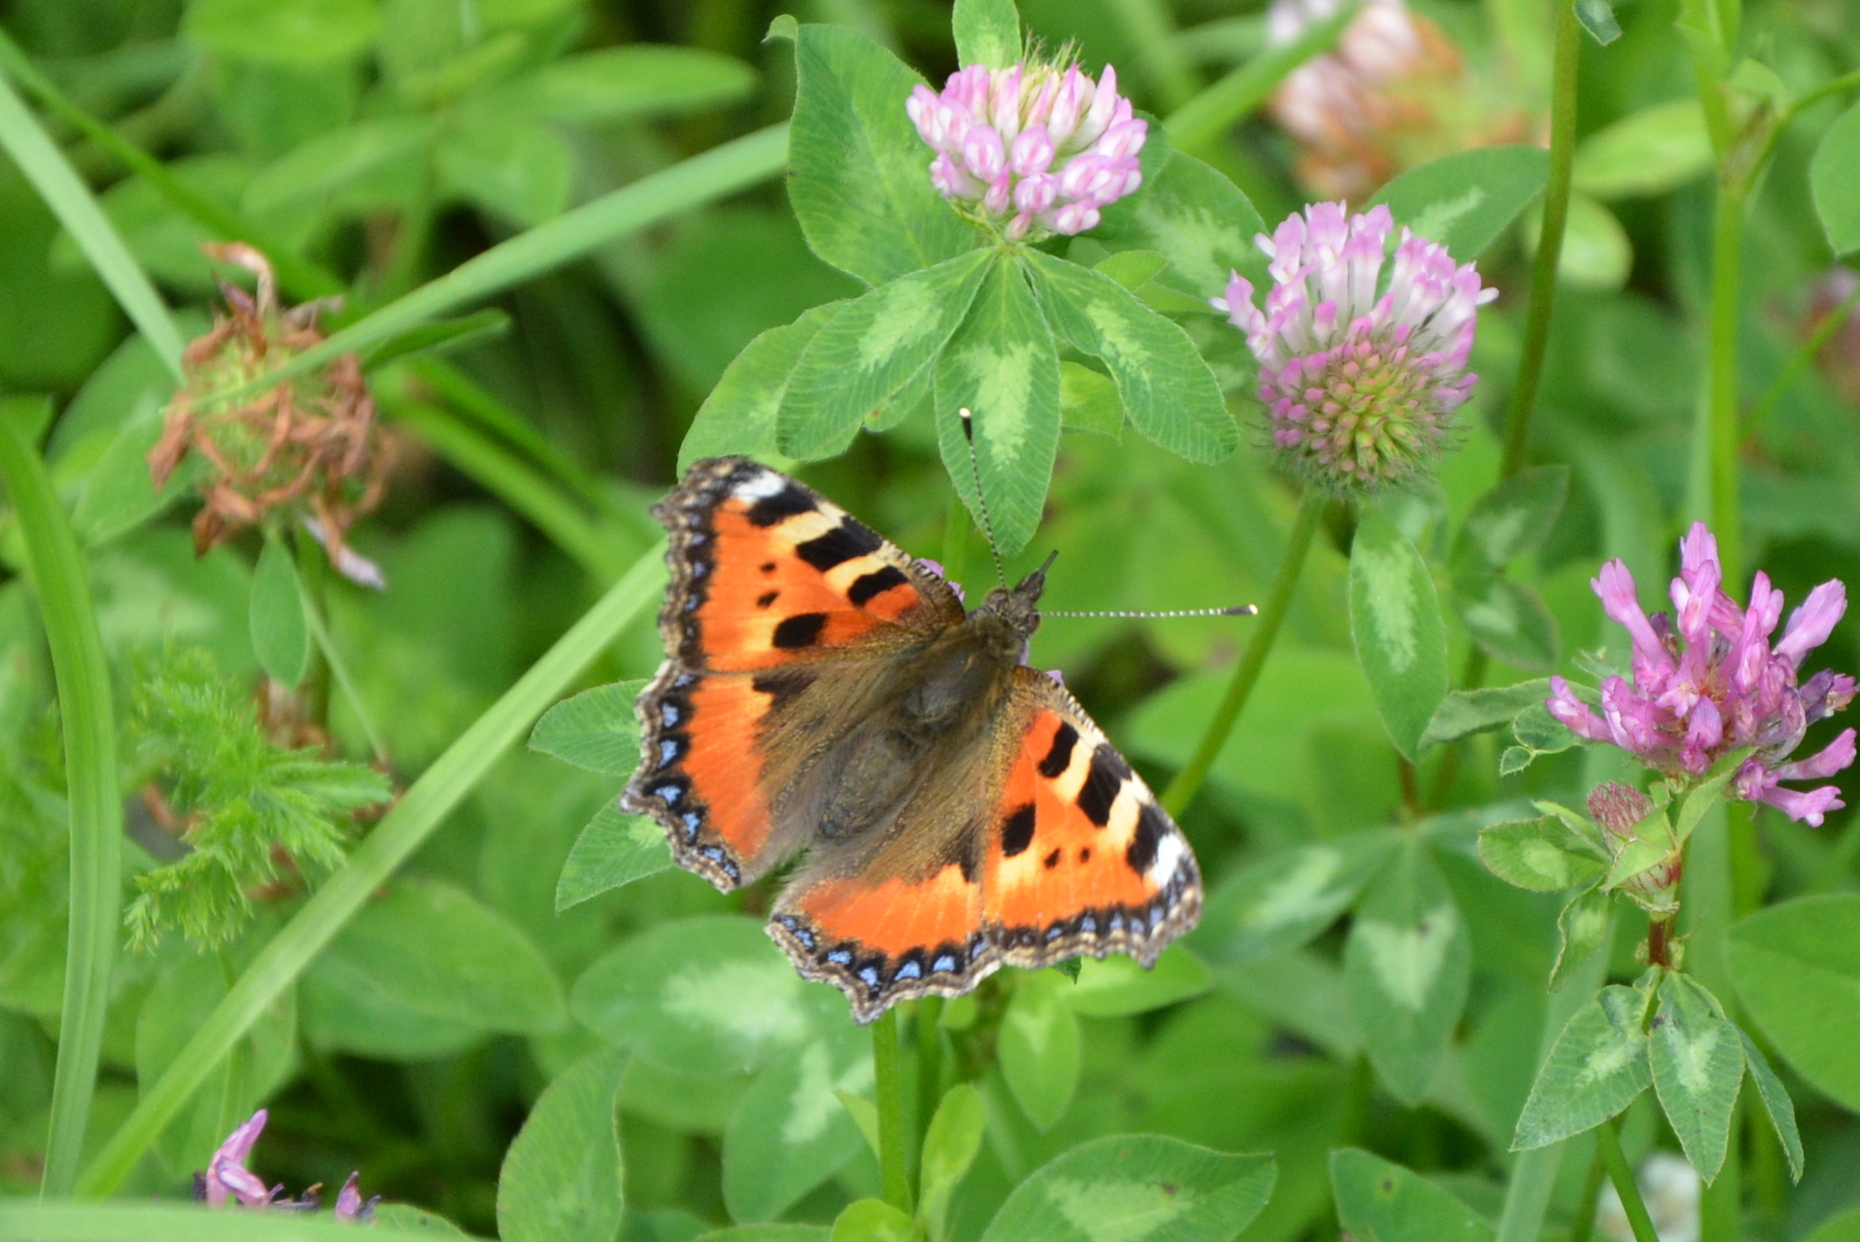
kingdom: Animalia
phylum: Arthropoda
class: Insecta
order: Lepidoptera
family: Nymphalidae
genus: Aglais
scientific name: Aglais urticae
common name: Small tortoiseshell
